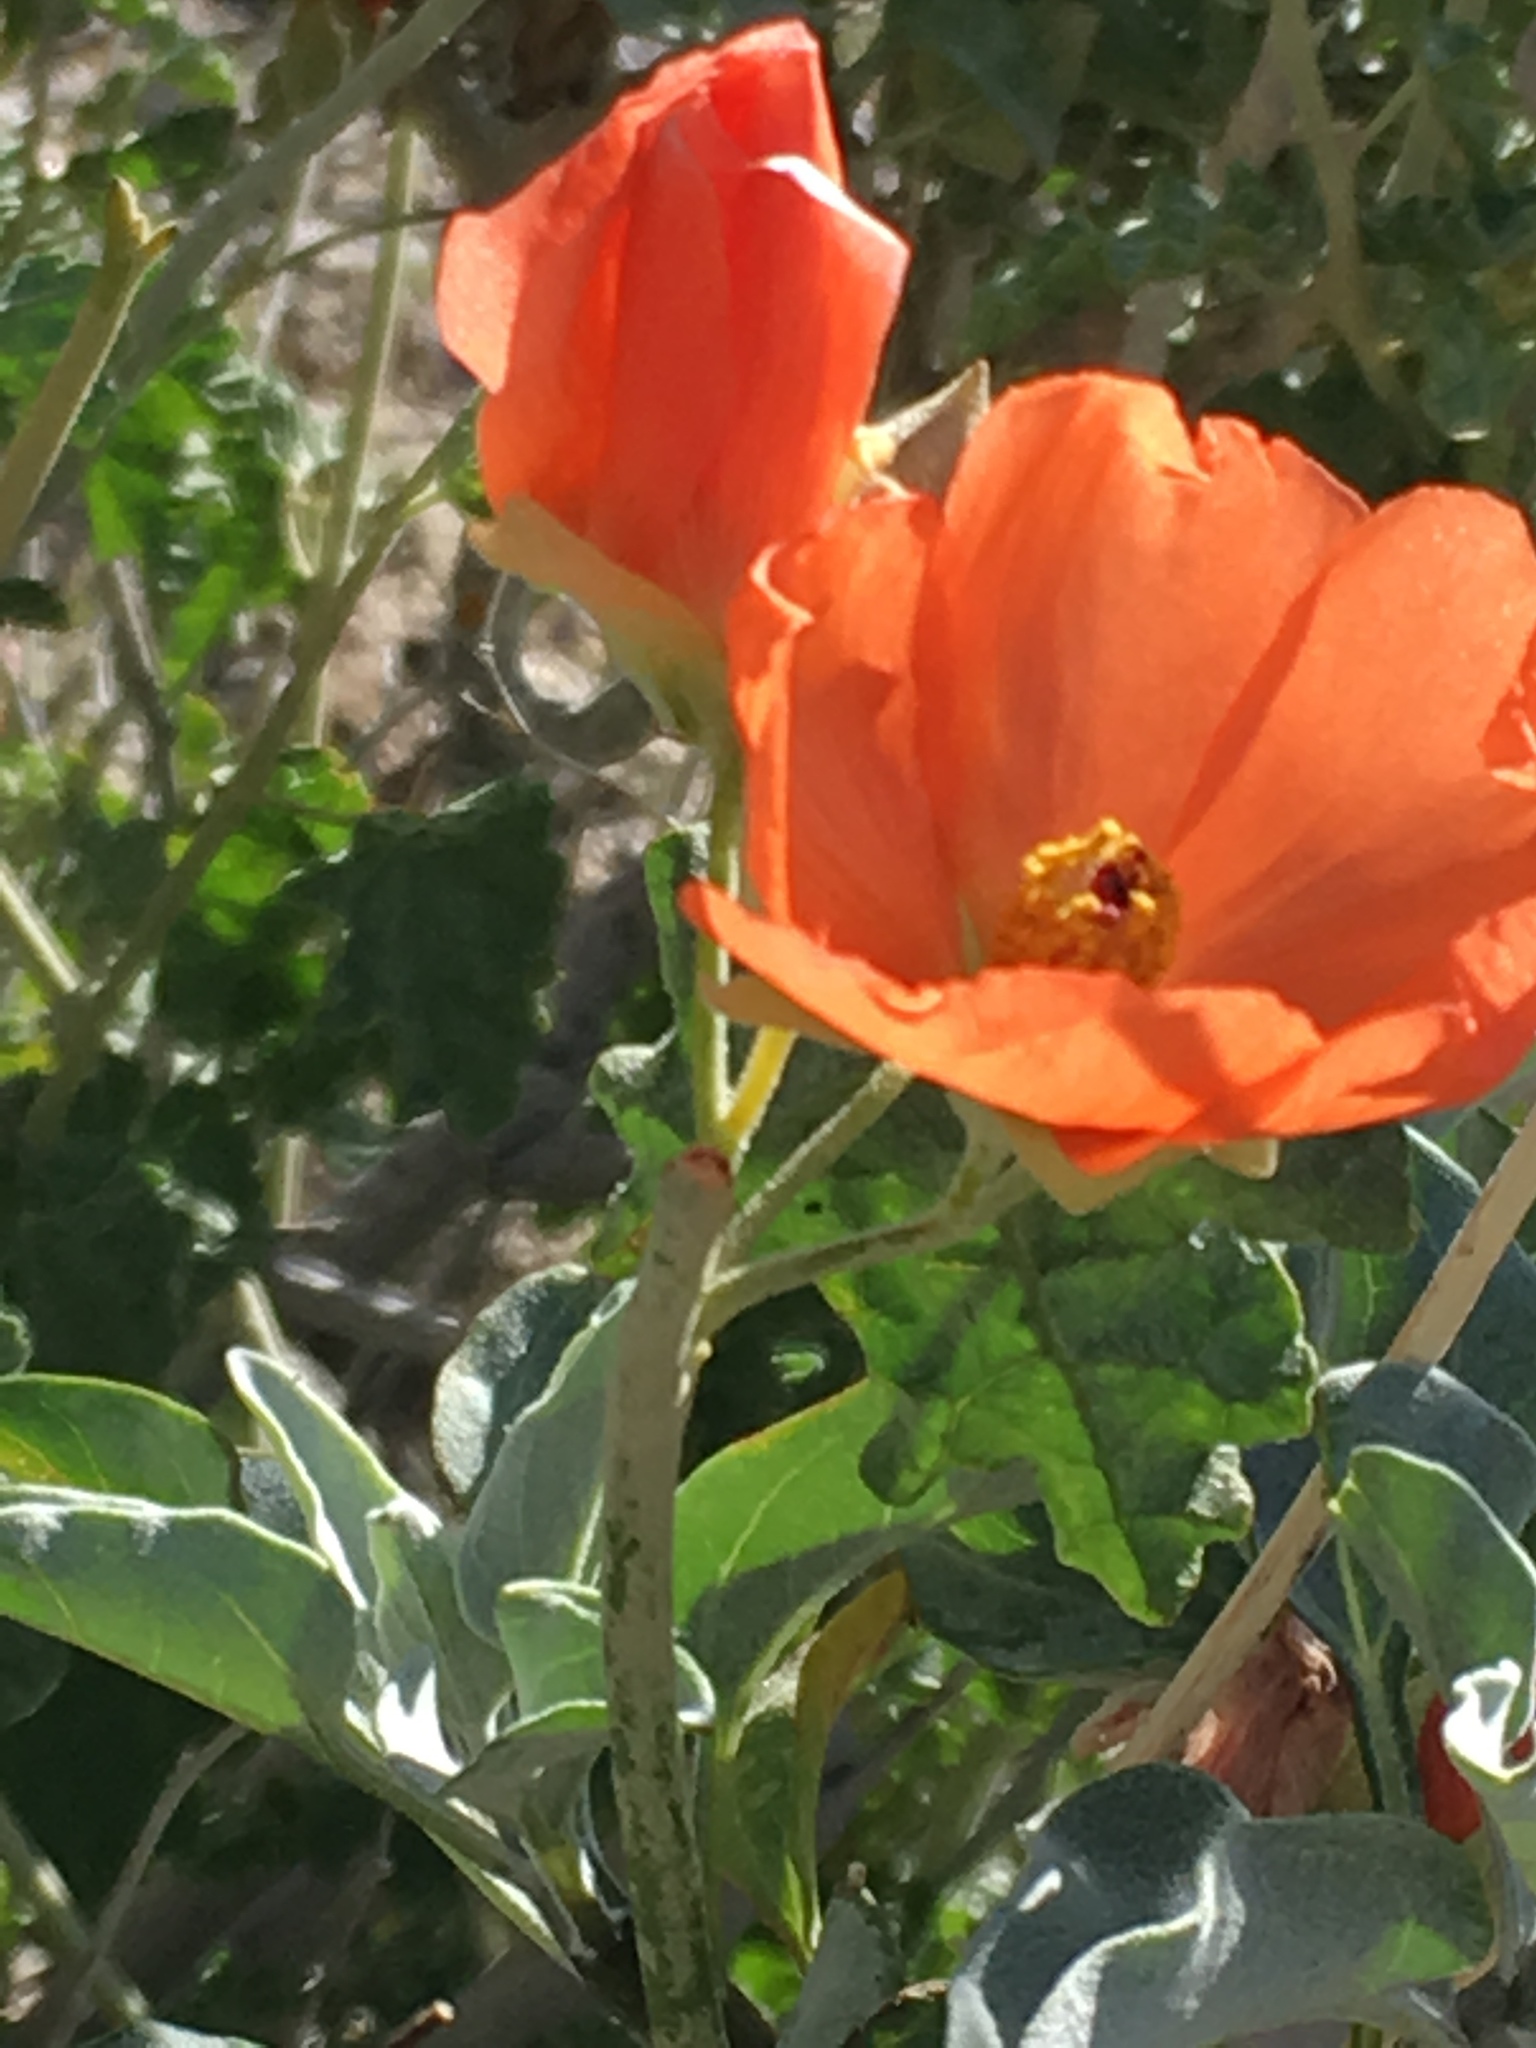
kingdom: Plantae
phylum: Tracheophyta
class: Magnoliopsida
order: Malvales
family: Malvaceae
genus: Sphaeralcea
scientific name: Sphaeralcea ambigua
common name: Apricot globe-mallow
